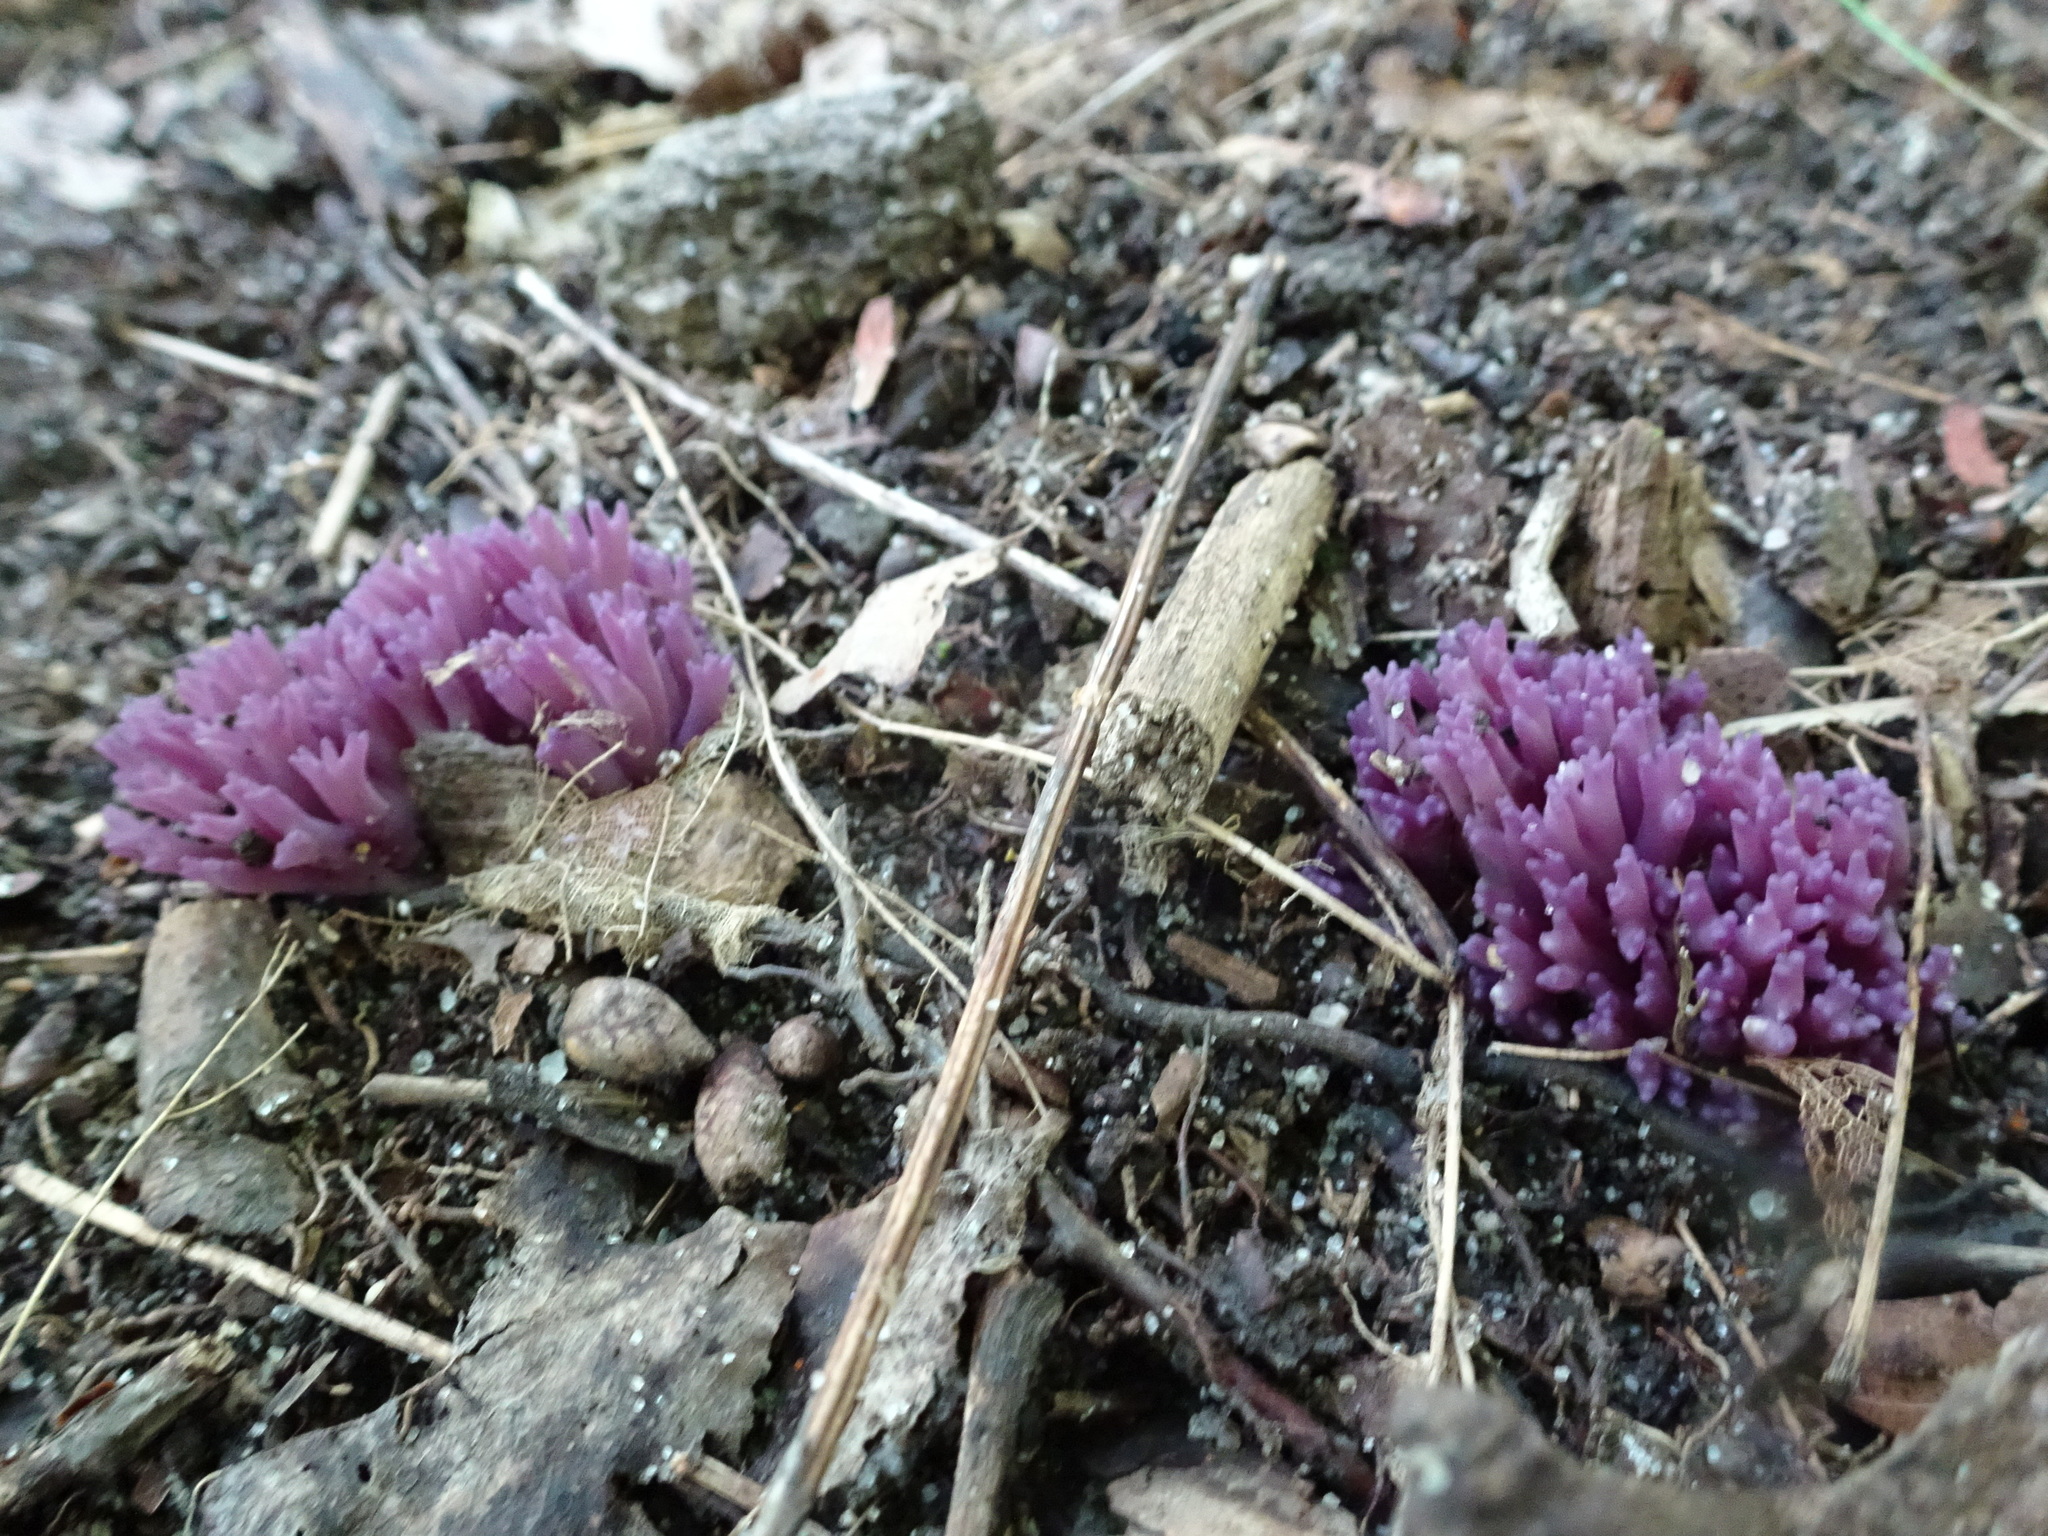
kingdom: Fungi
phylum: Basidiomycota
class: Agaricomycetes
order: Agaricales
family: Clavariaceae
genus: Clavaria
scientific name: Clavaria zollingeri
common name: Violet coral
